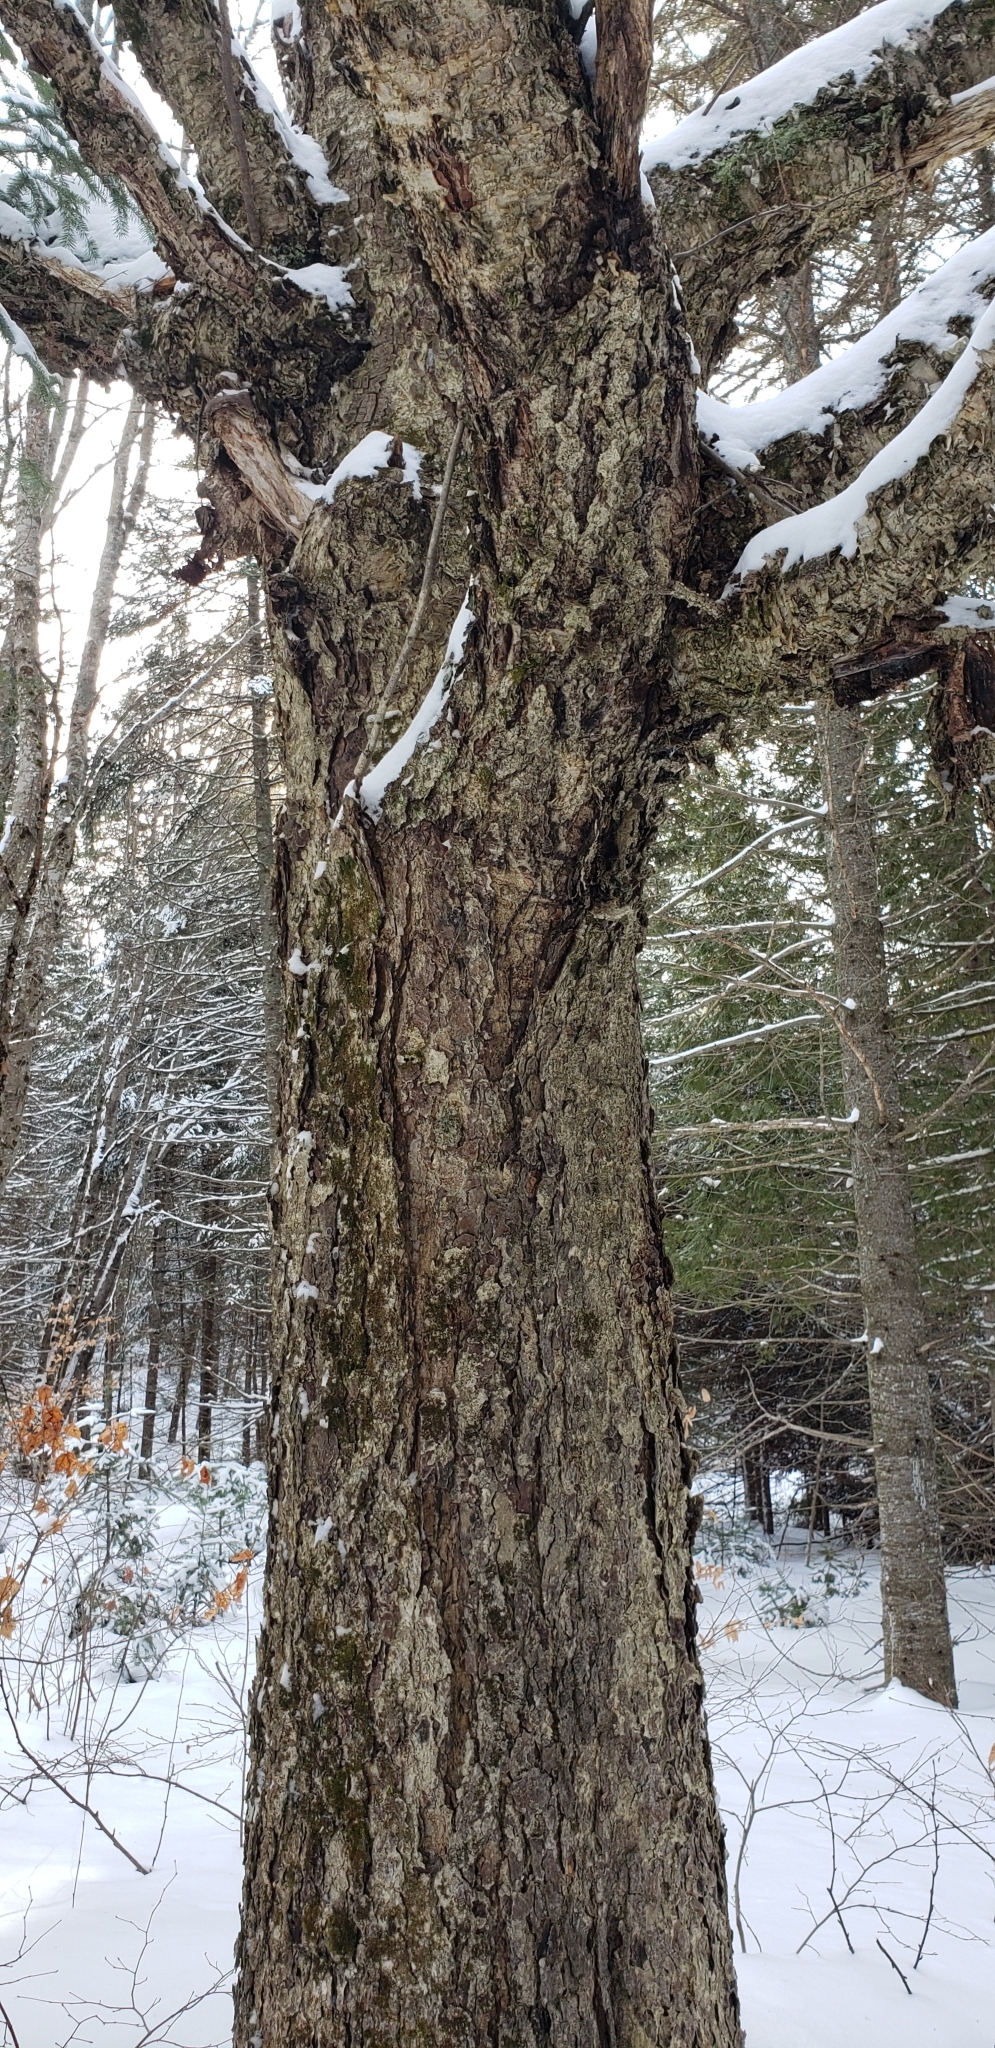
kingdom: Plantae
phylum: Tracheophyta
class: Magnoliopsida
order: Fagales
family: Betulaceae
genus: Betula
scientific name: Betula alleghaniensis
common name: Yellow birch
